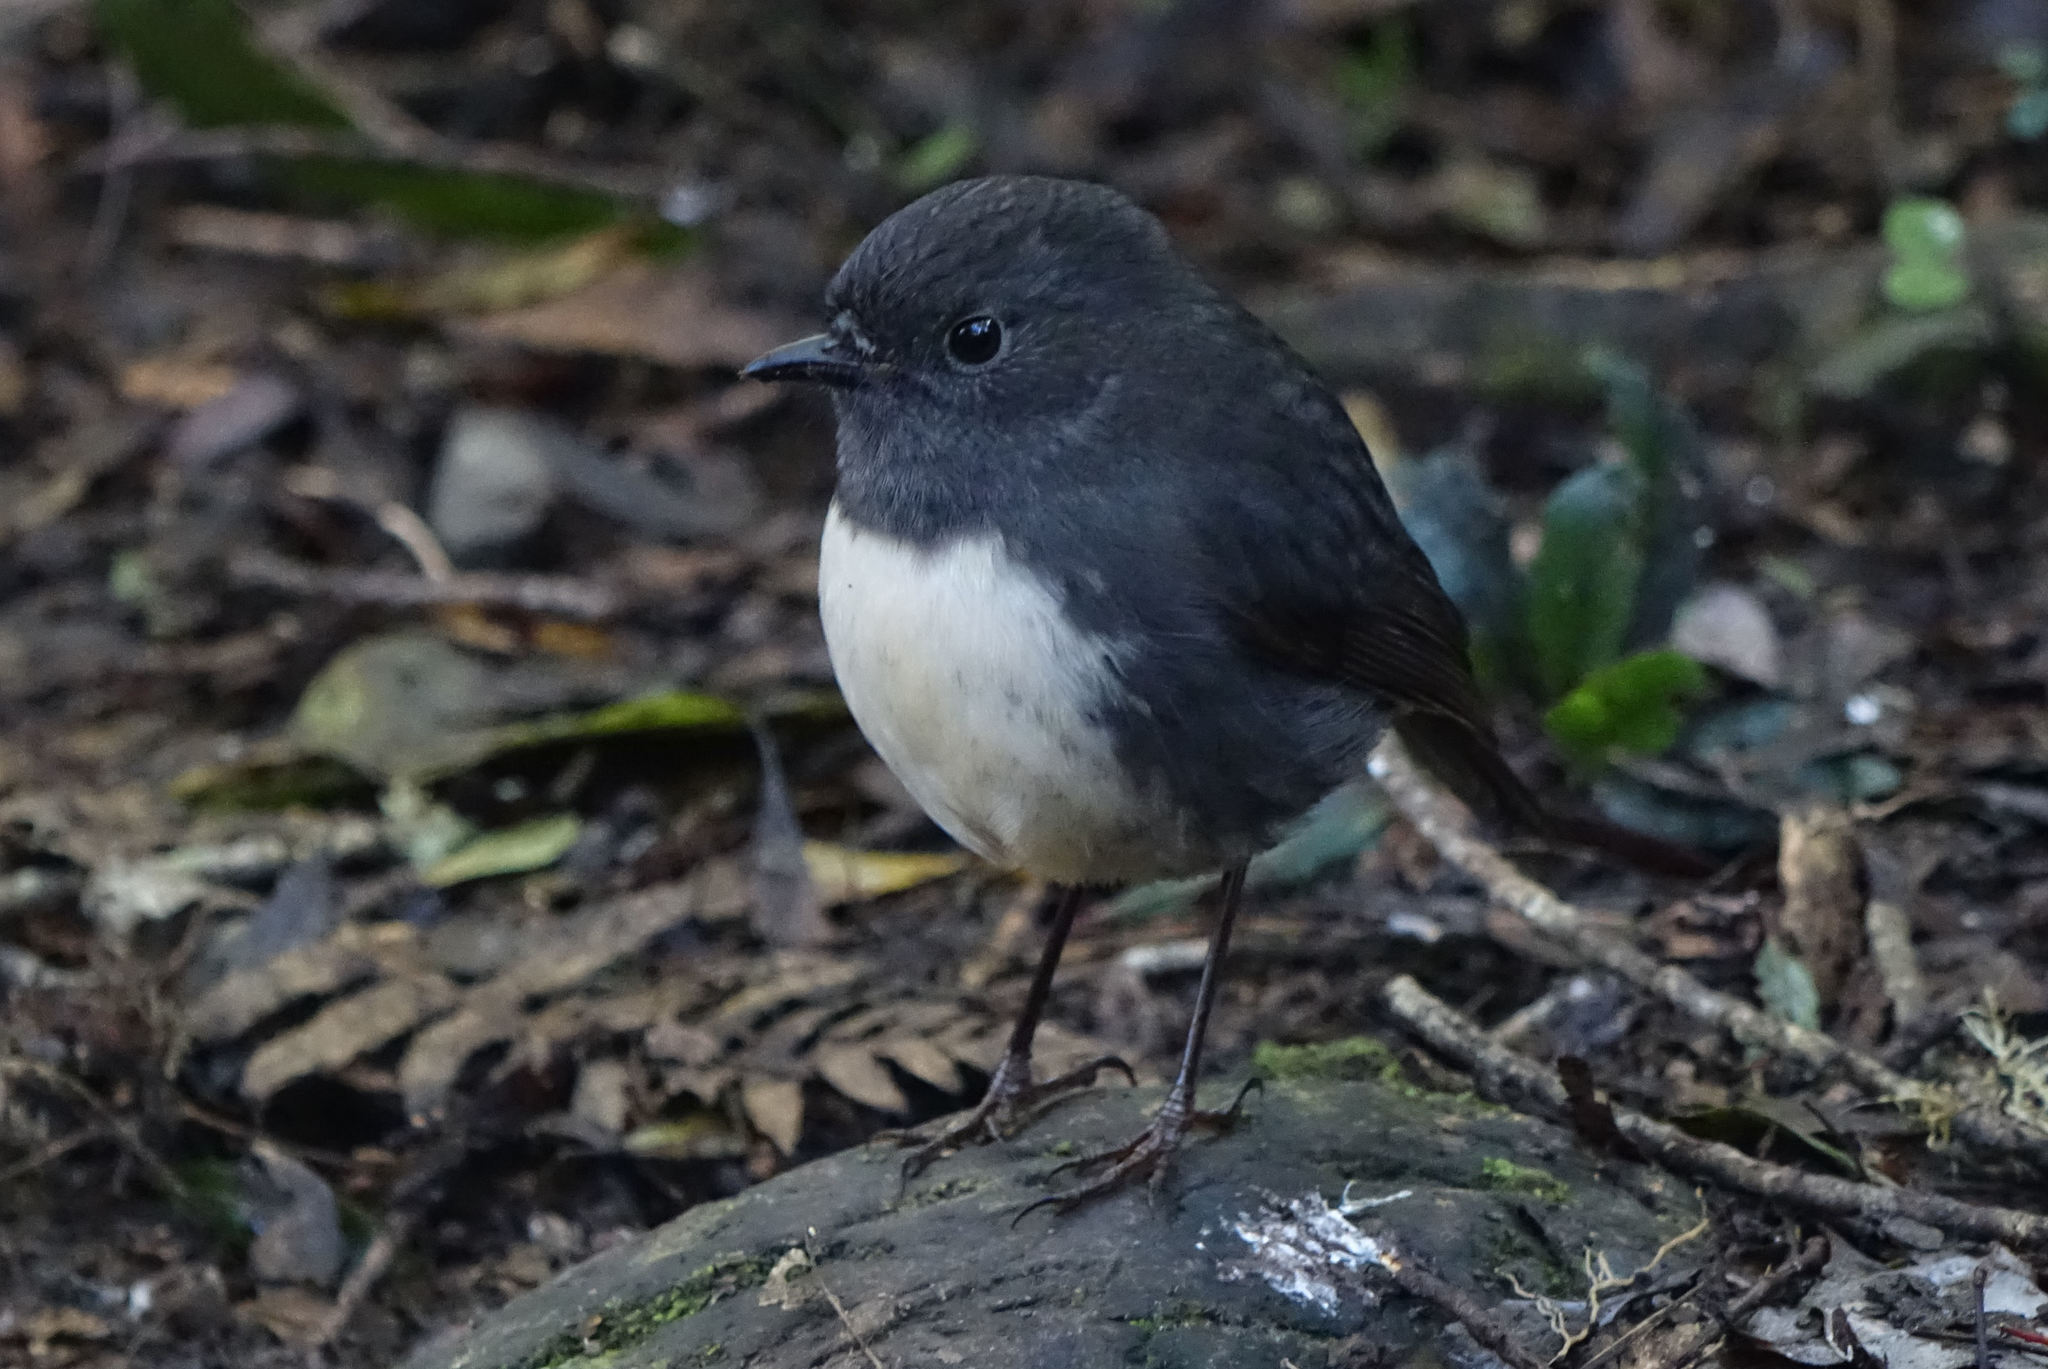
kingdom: Animalia
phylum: Chordata
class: Aves
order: Passeriformes
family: Petroicidae
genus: Petroica
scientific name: Petroica australis
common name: New zealand robin
